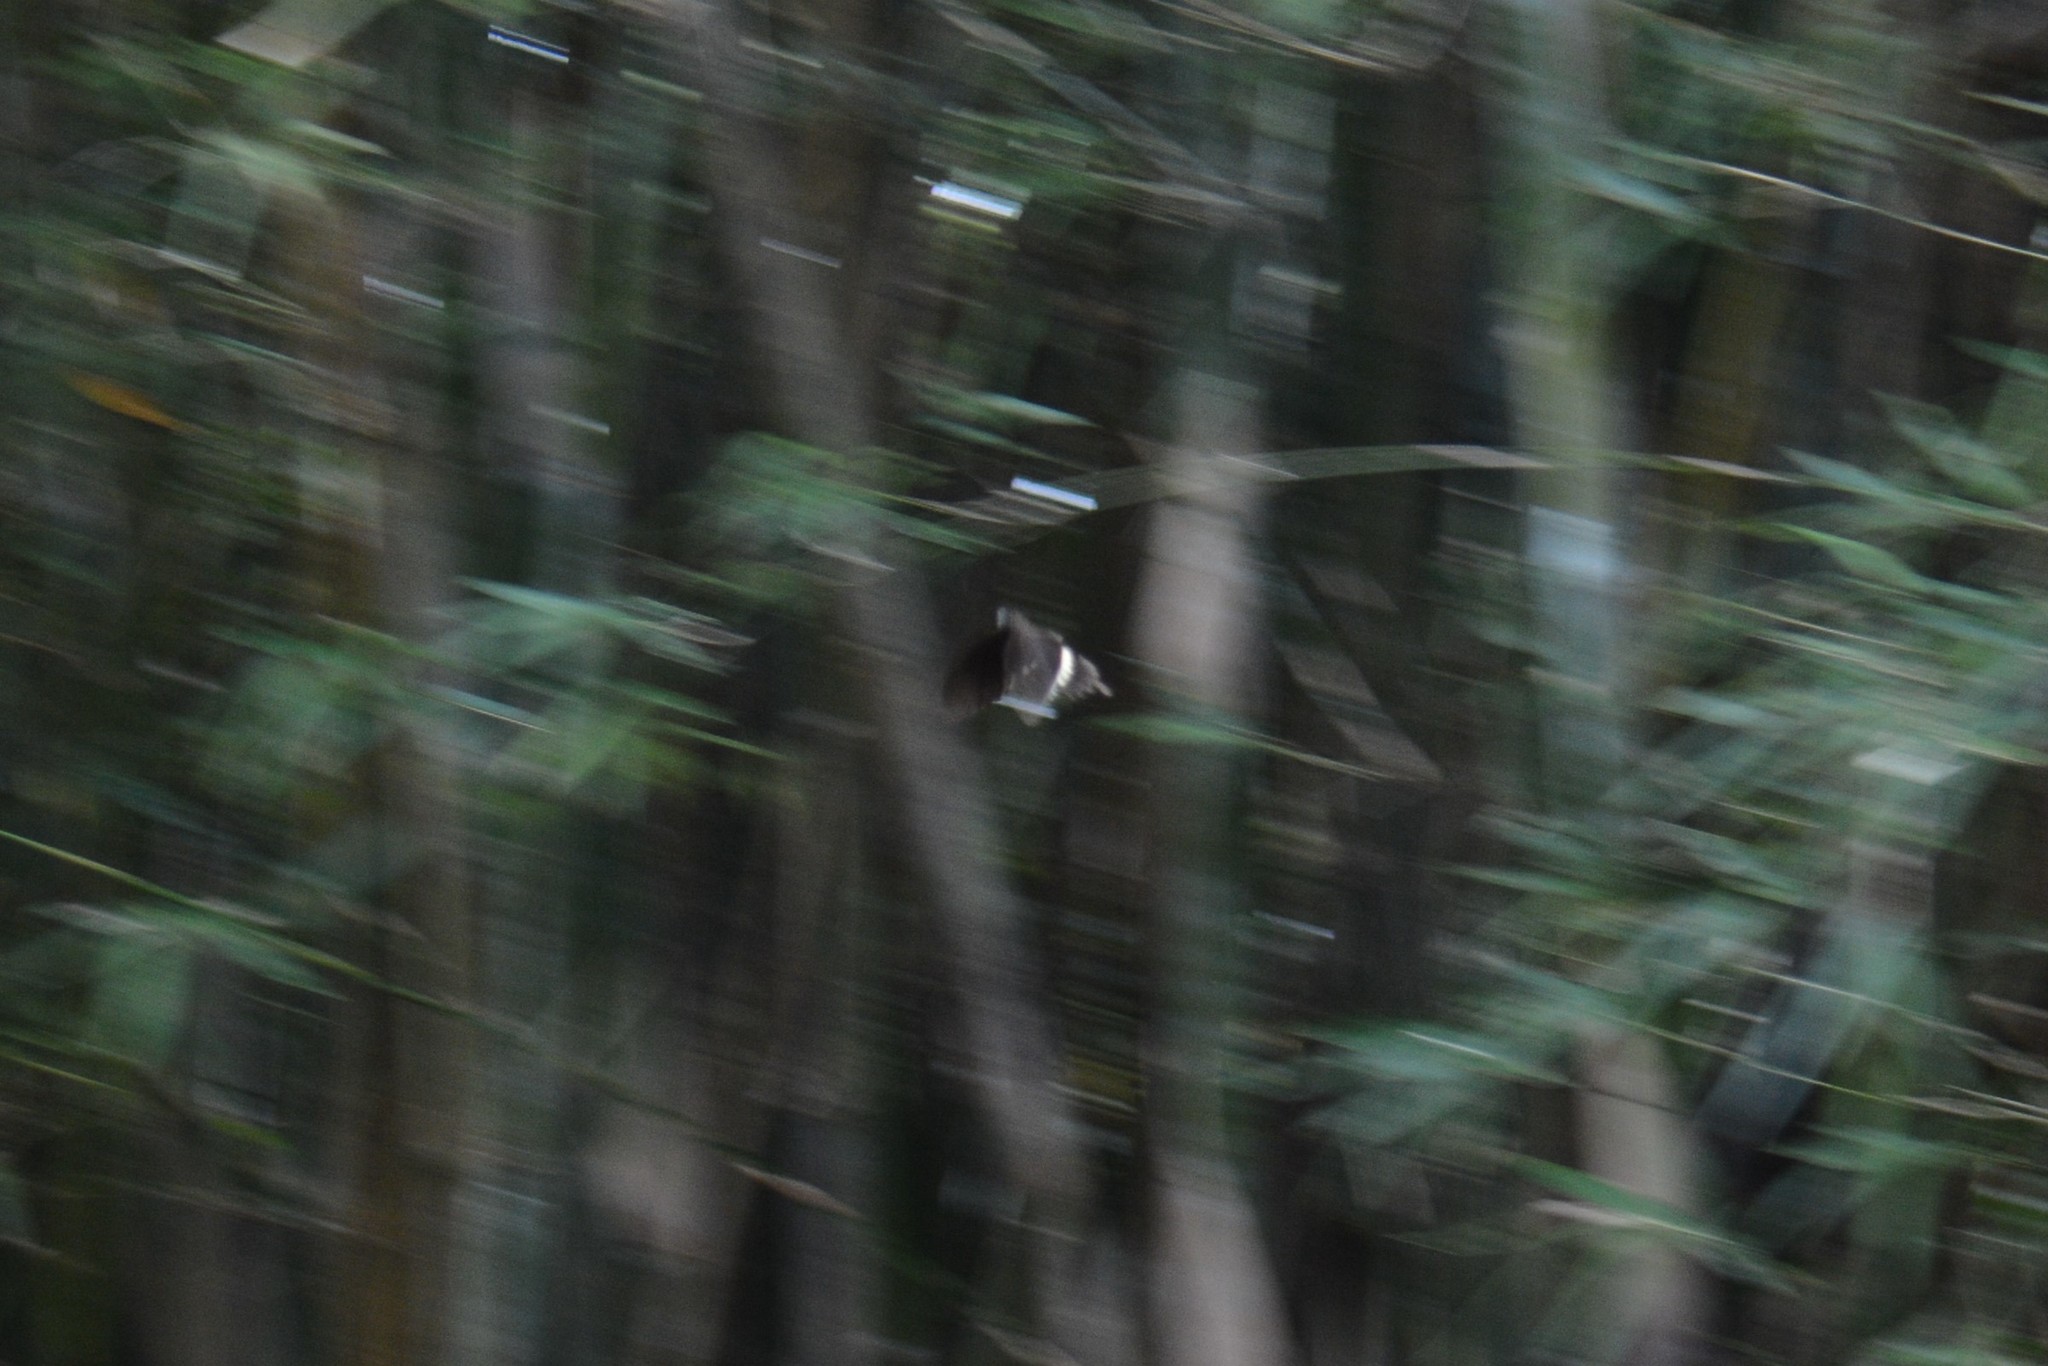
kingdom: Animalia
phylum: Arthropoda
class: Insecta
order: Lepidoptera
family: Papilionidae
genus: Papilio
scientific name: Papilio polytes
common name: Common mormon
